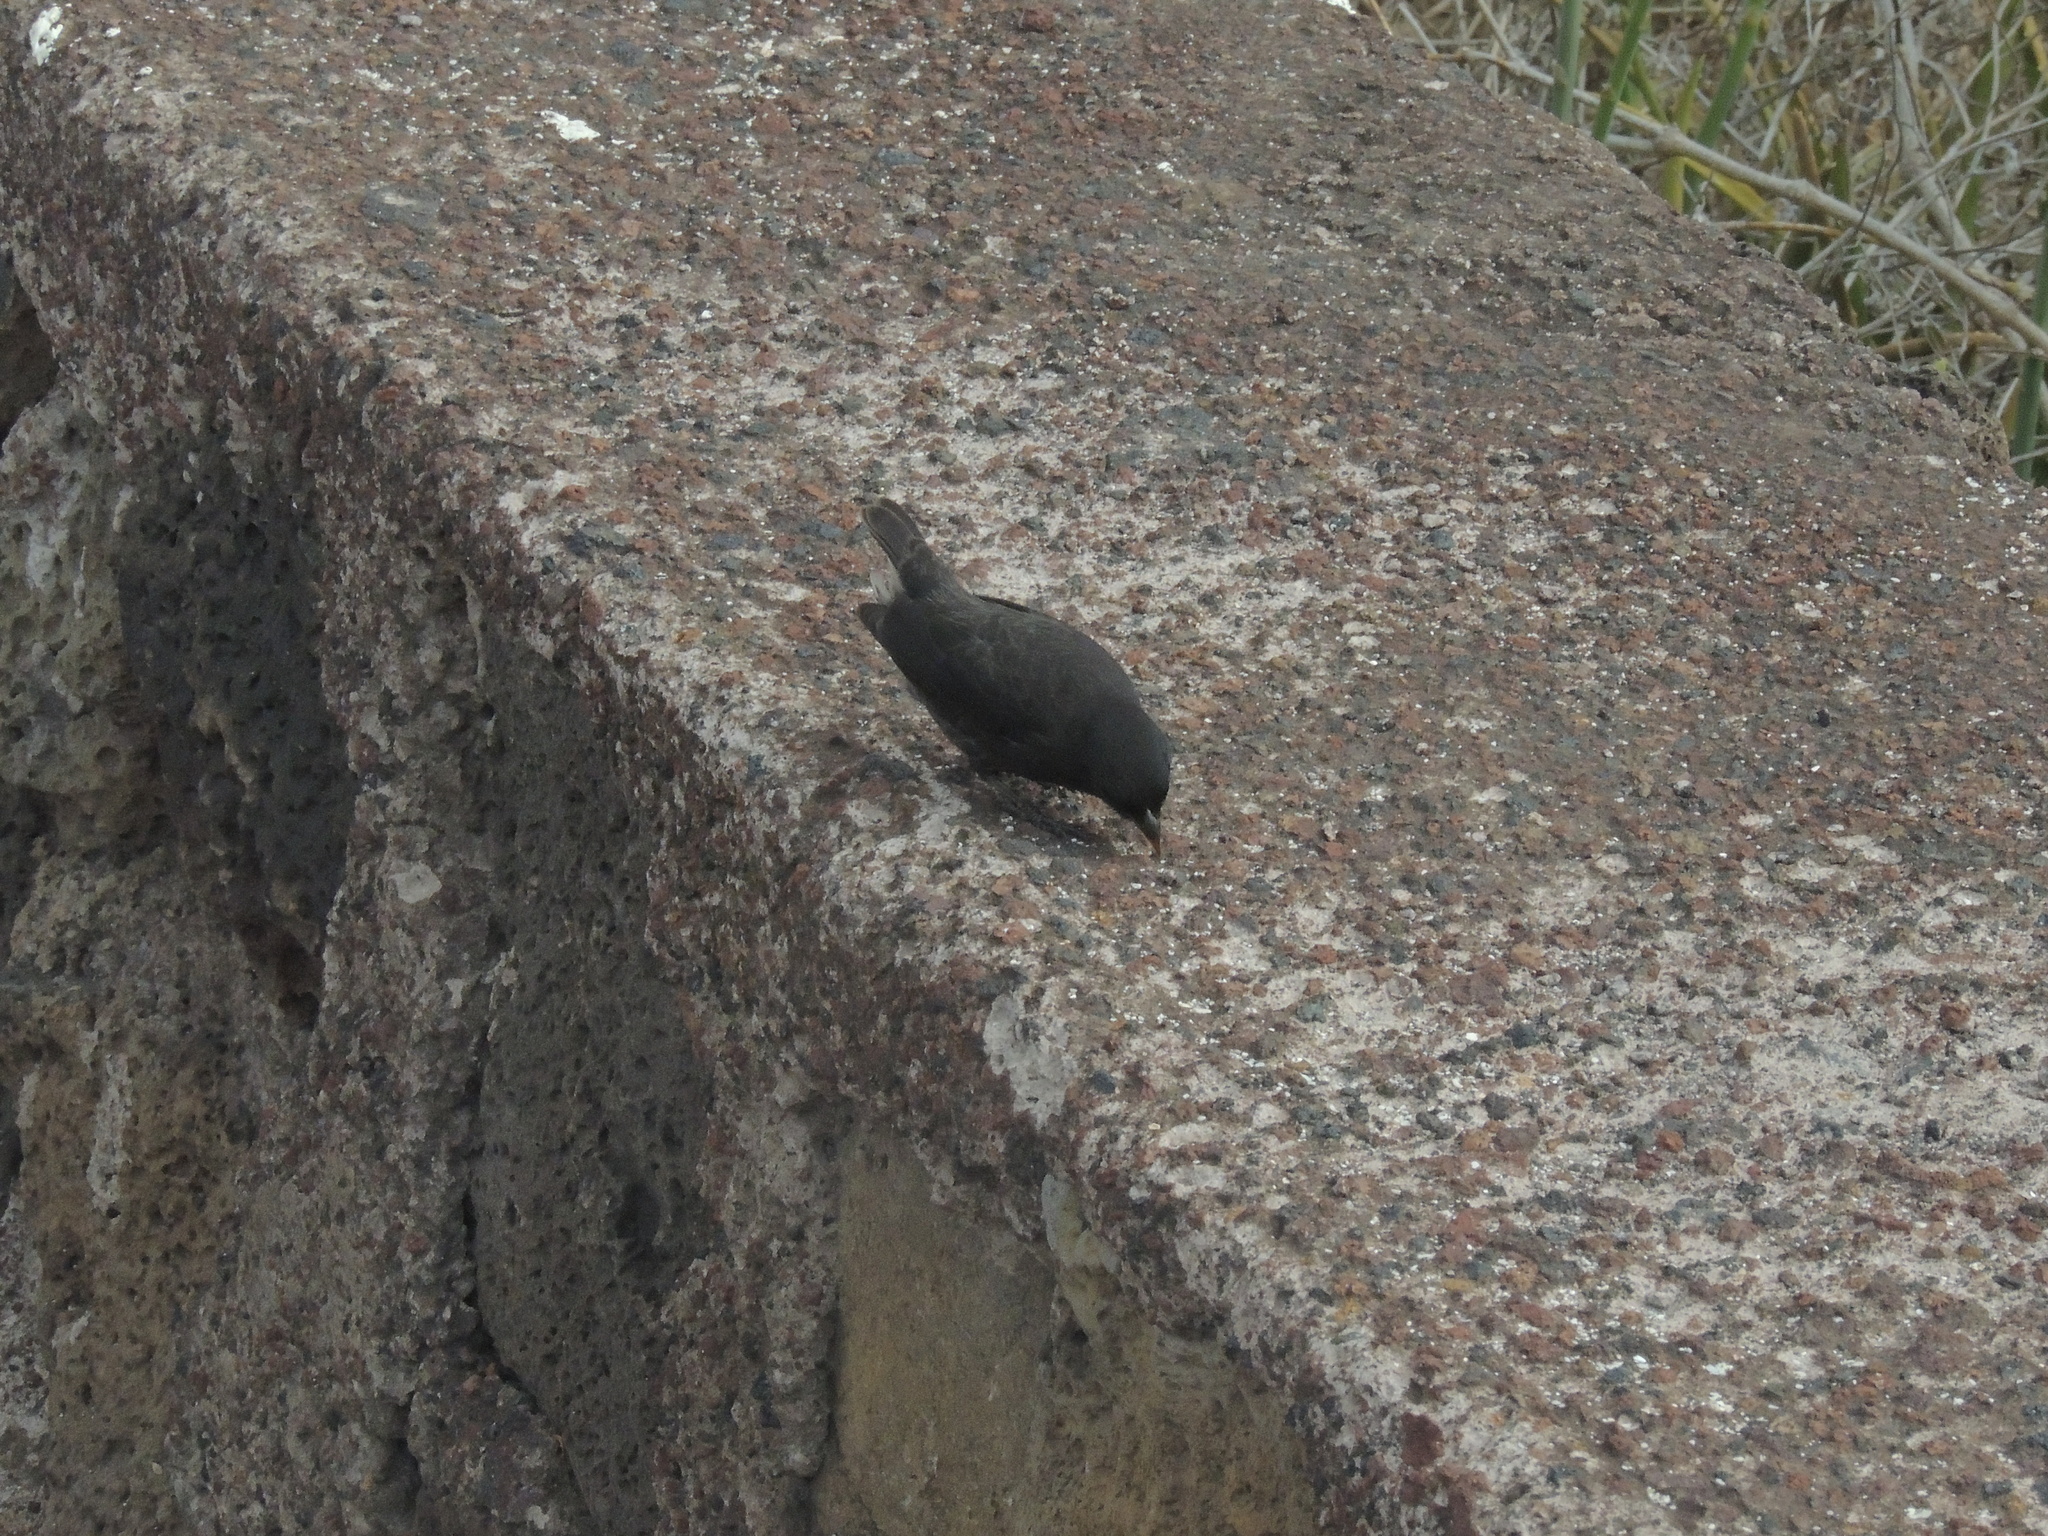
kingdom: Animalia
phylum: Chordata
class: Aves
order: Passeriformes
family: Thraupidae
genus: Geospiza
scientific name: Geospiza fortis
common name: Medium ground finch
